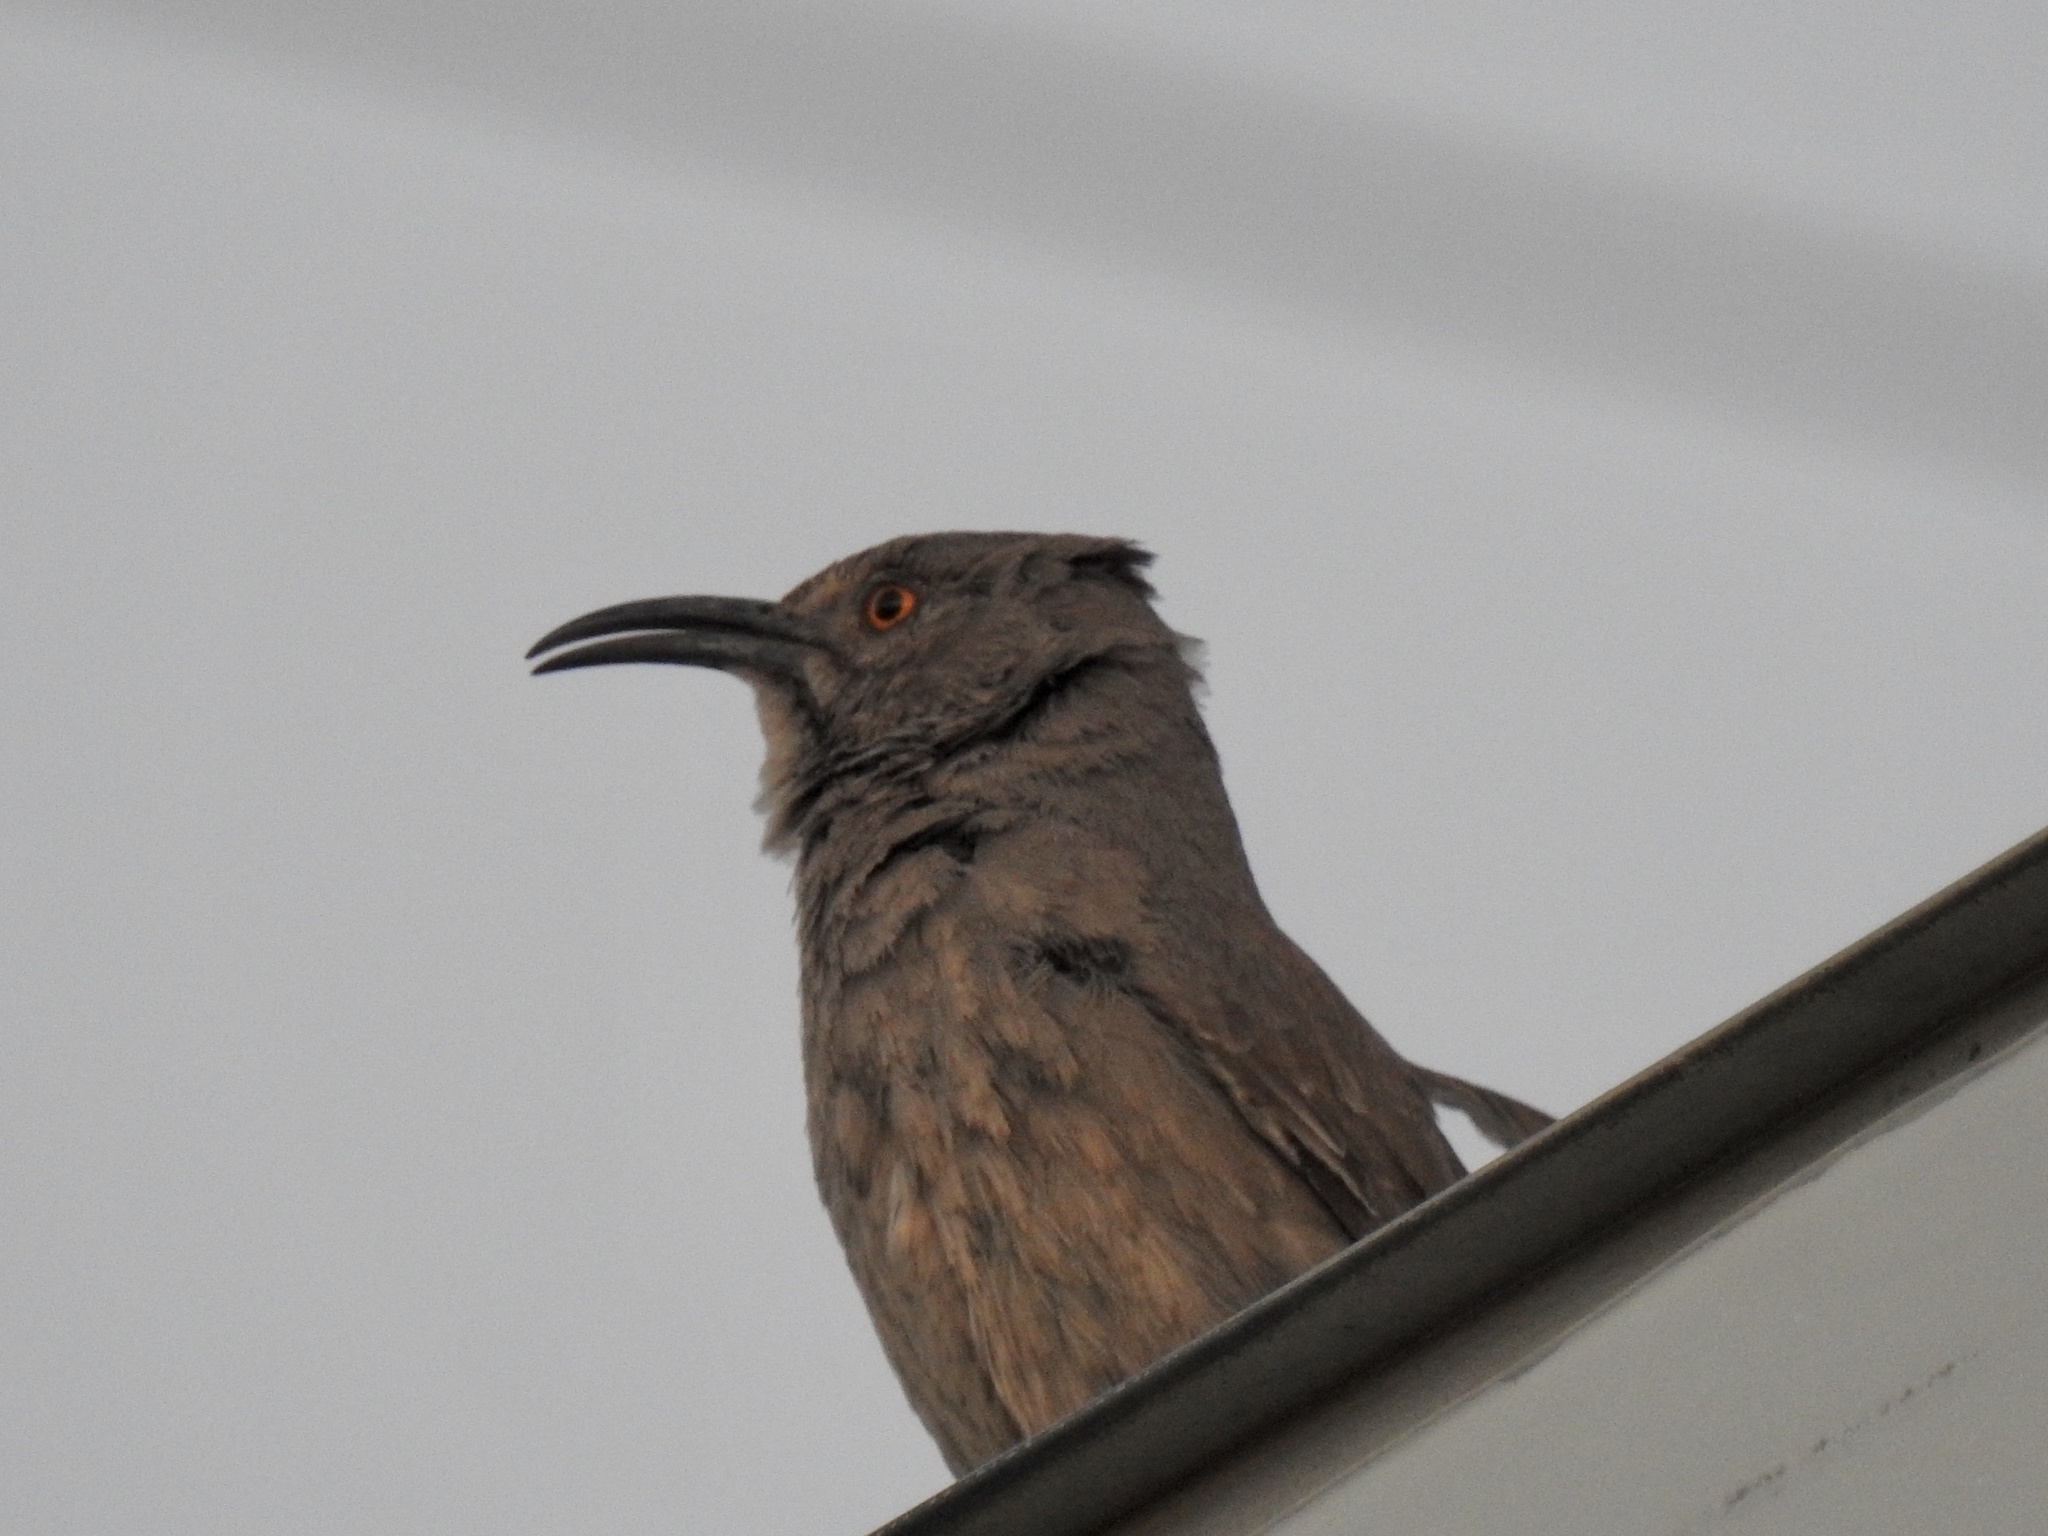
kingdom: Animalia
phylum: Chordata
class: Aves
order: Passeriformes
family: Mimidae
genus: Toxostoma
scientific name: Toxostoma curvirostre
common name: Curve-billed thrasher
